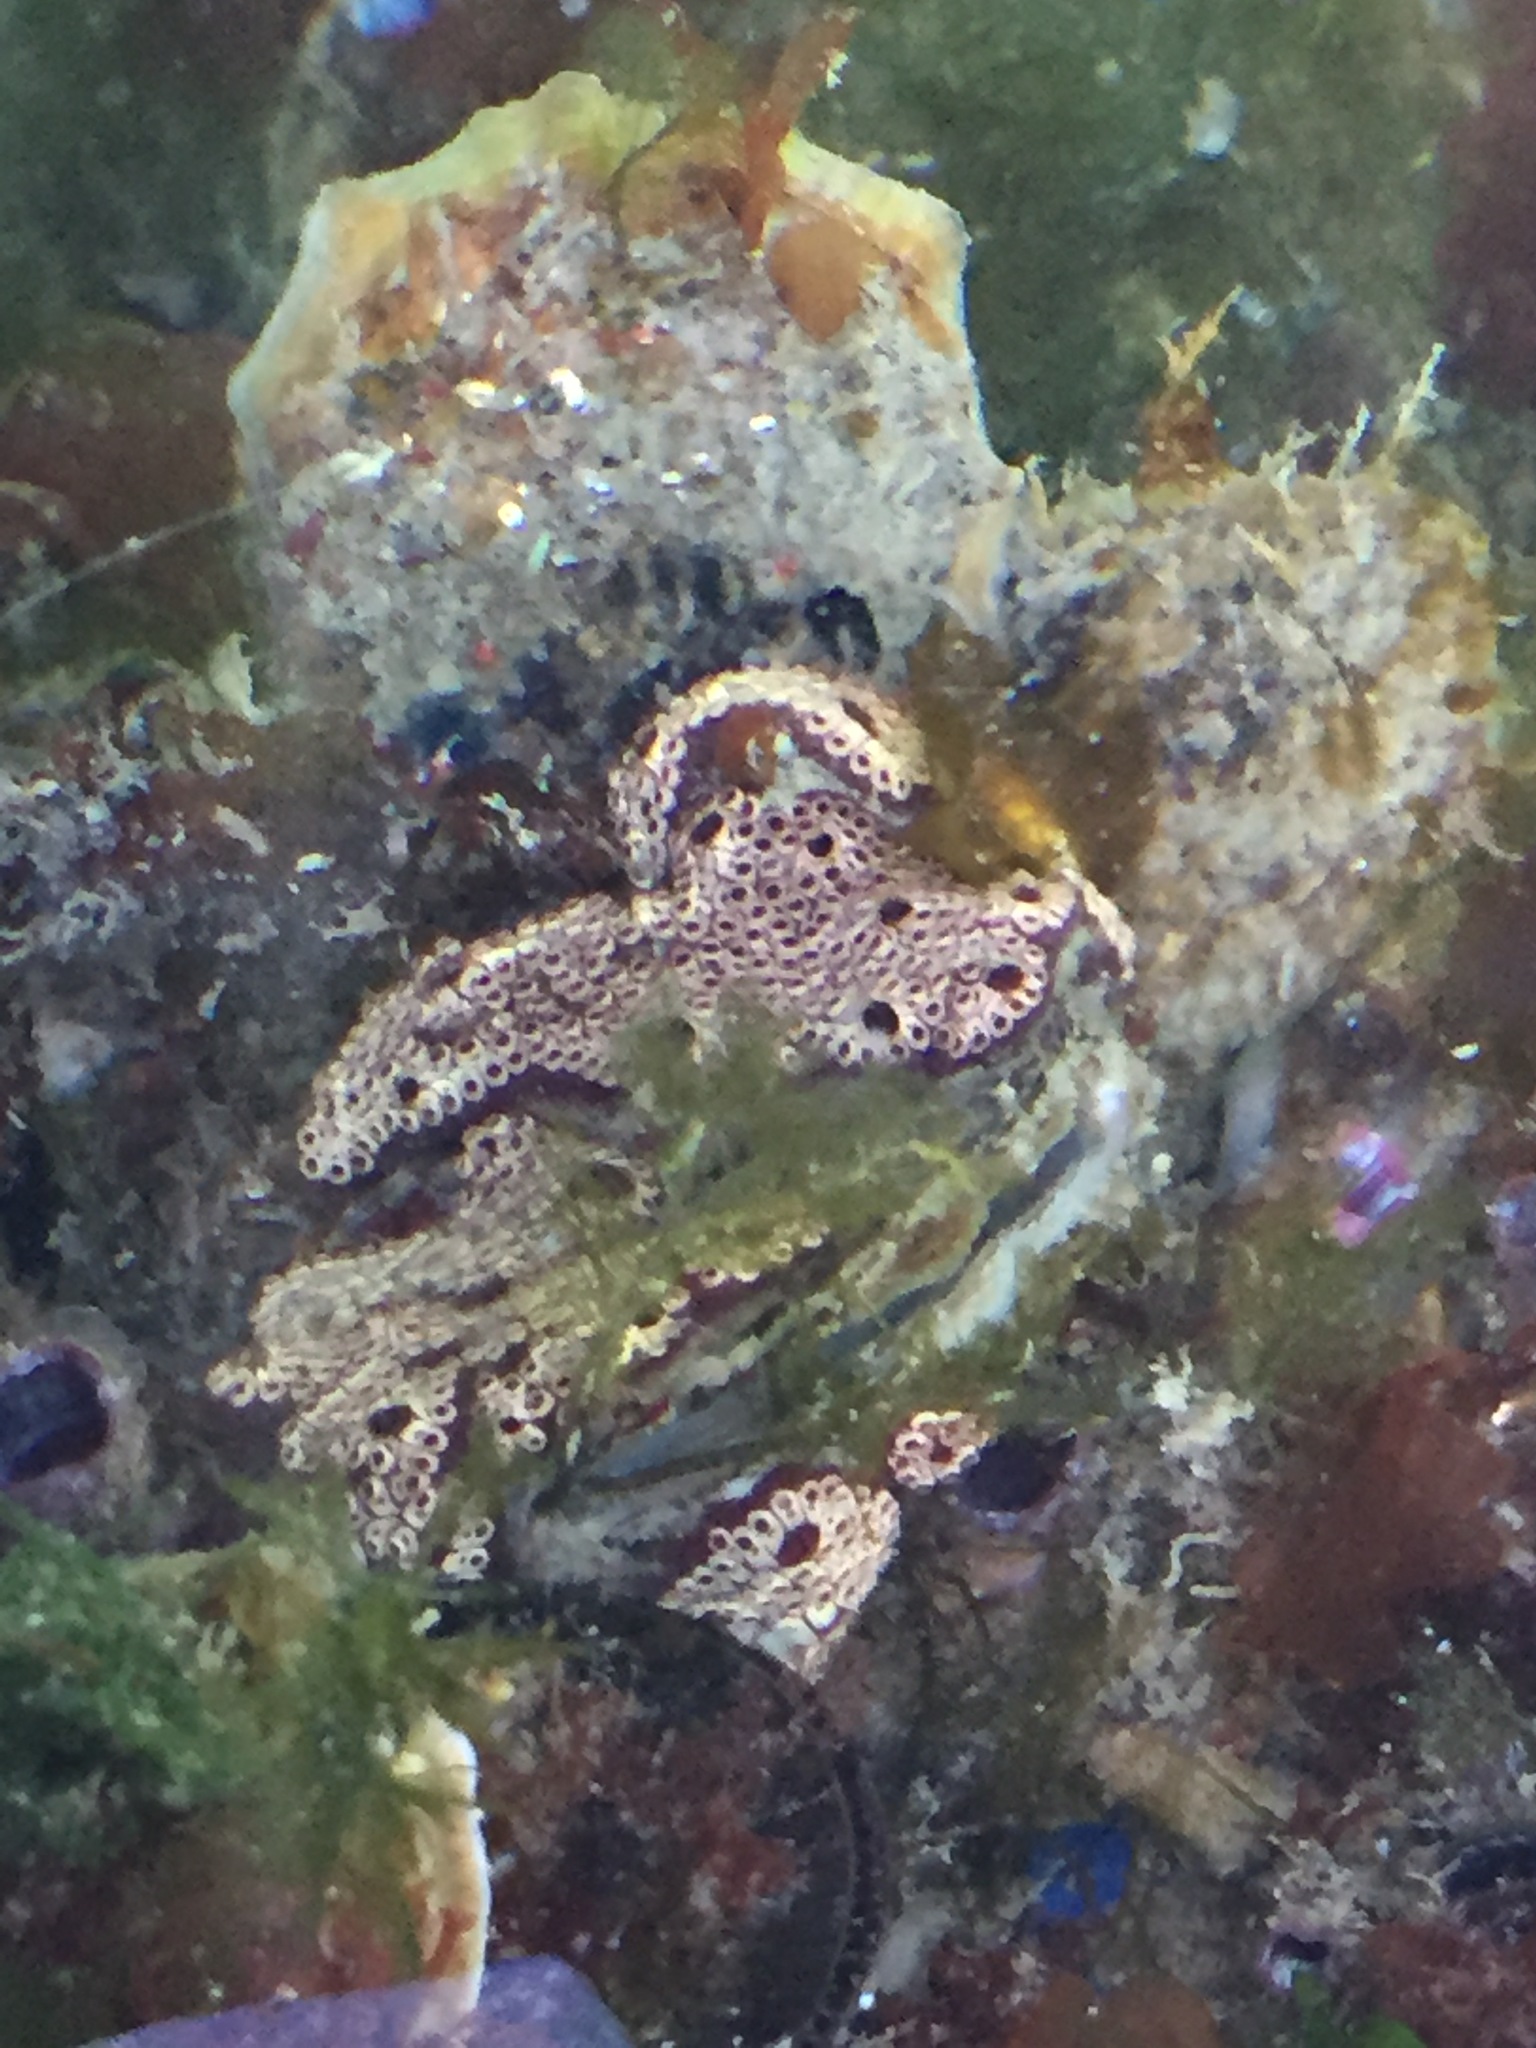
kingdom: Animalia
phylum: Chordata
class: Ascidiacea
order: Stolidobranchia
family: Styelidae
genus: Botrylloides
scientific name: Botrylloides leachii
